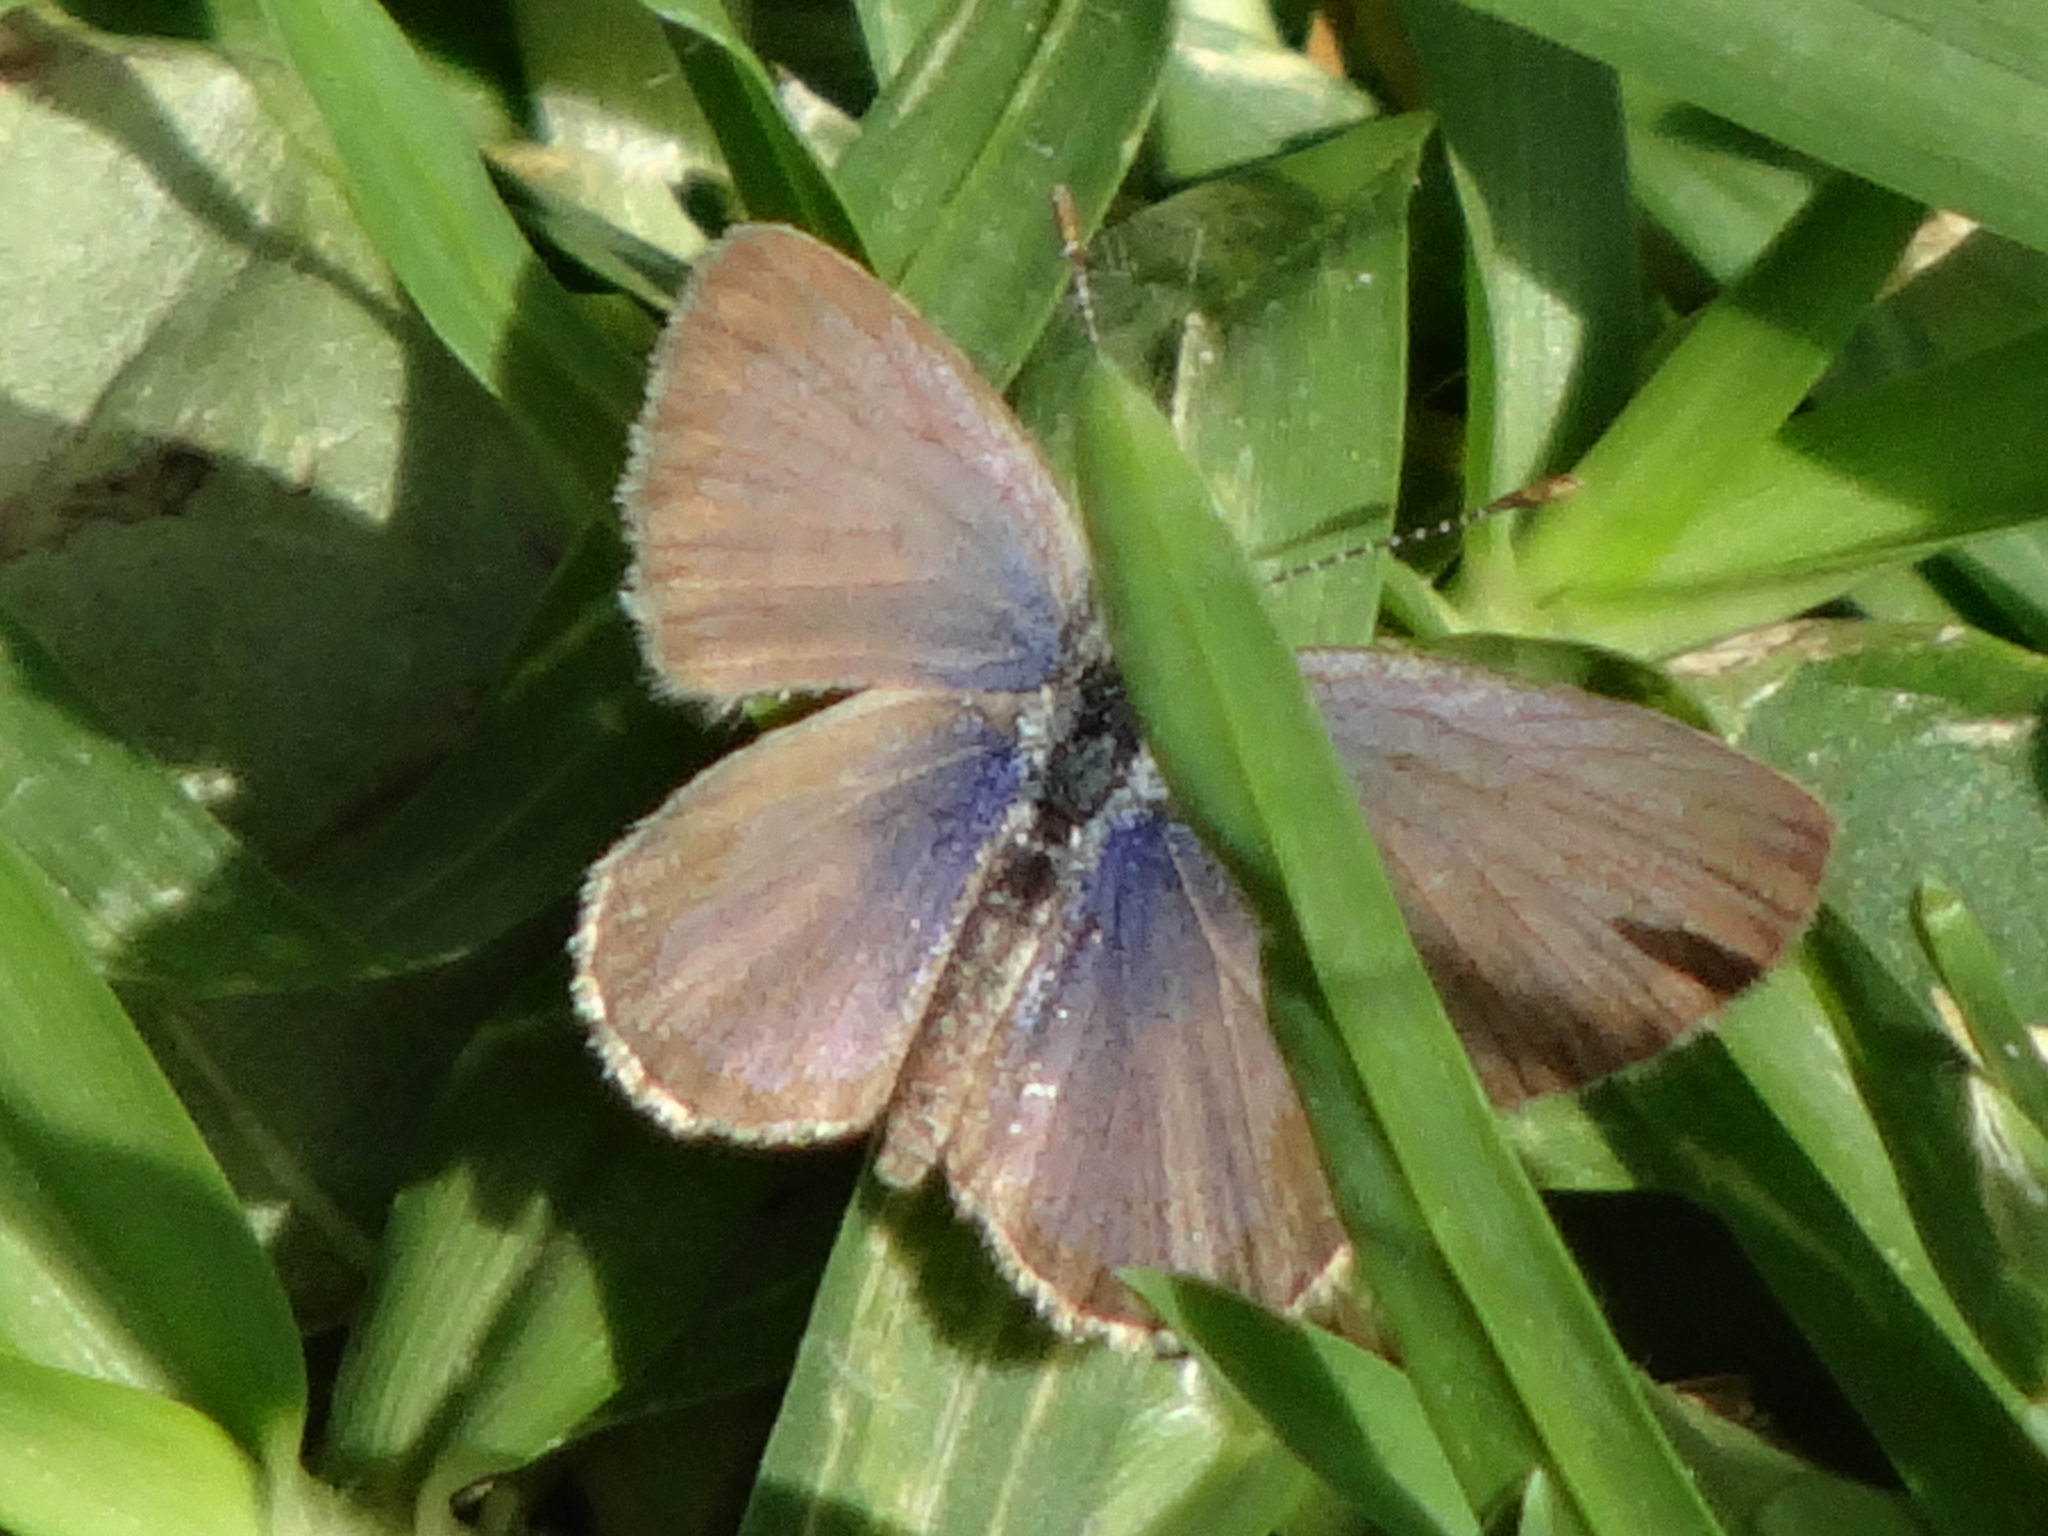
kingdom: Animalia
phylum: Arthropoda
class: Insecta
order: Lepidoptera
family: Lycaenidae
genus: Zizeeria
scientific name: Zizeeria knysna
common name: African grass blue
